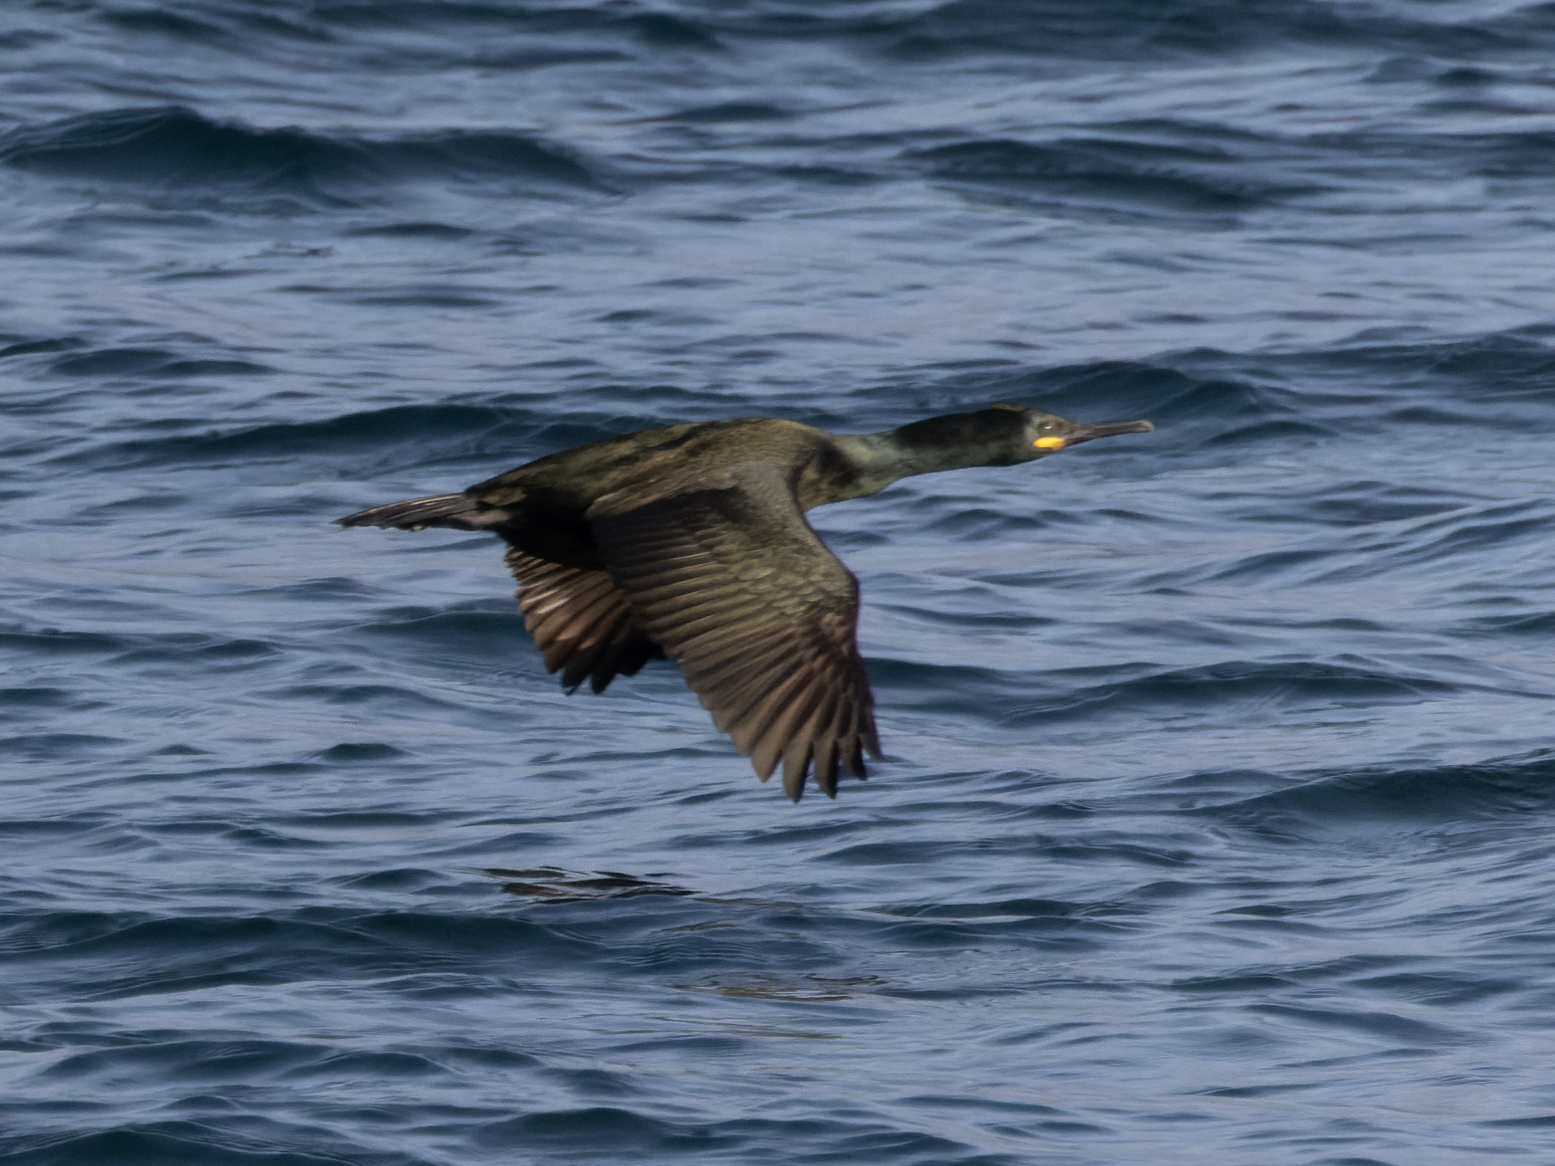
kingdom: Animalia
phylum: Chordata
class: Aves
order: Suliformes
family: Phalacrocoracidae
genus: Phalacrocorax
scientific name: Phalacrocorax aristotelis
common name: European shag
